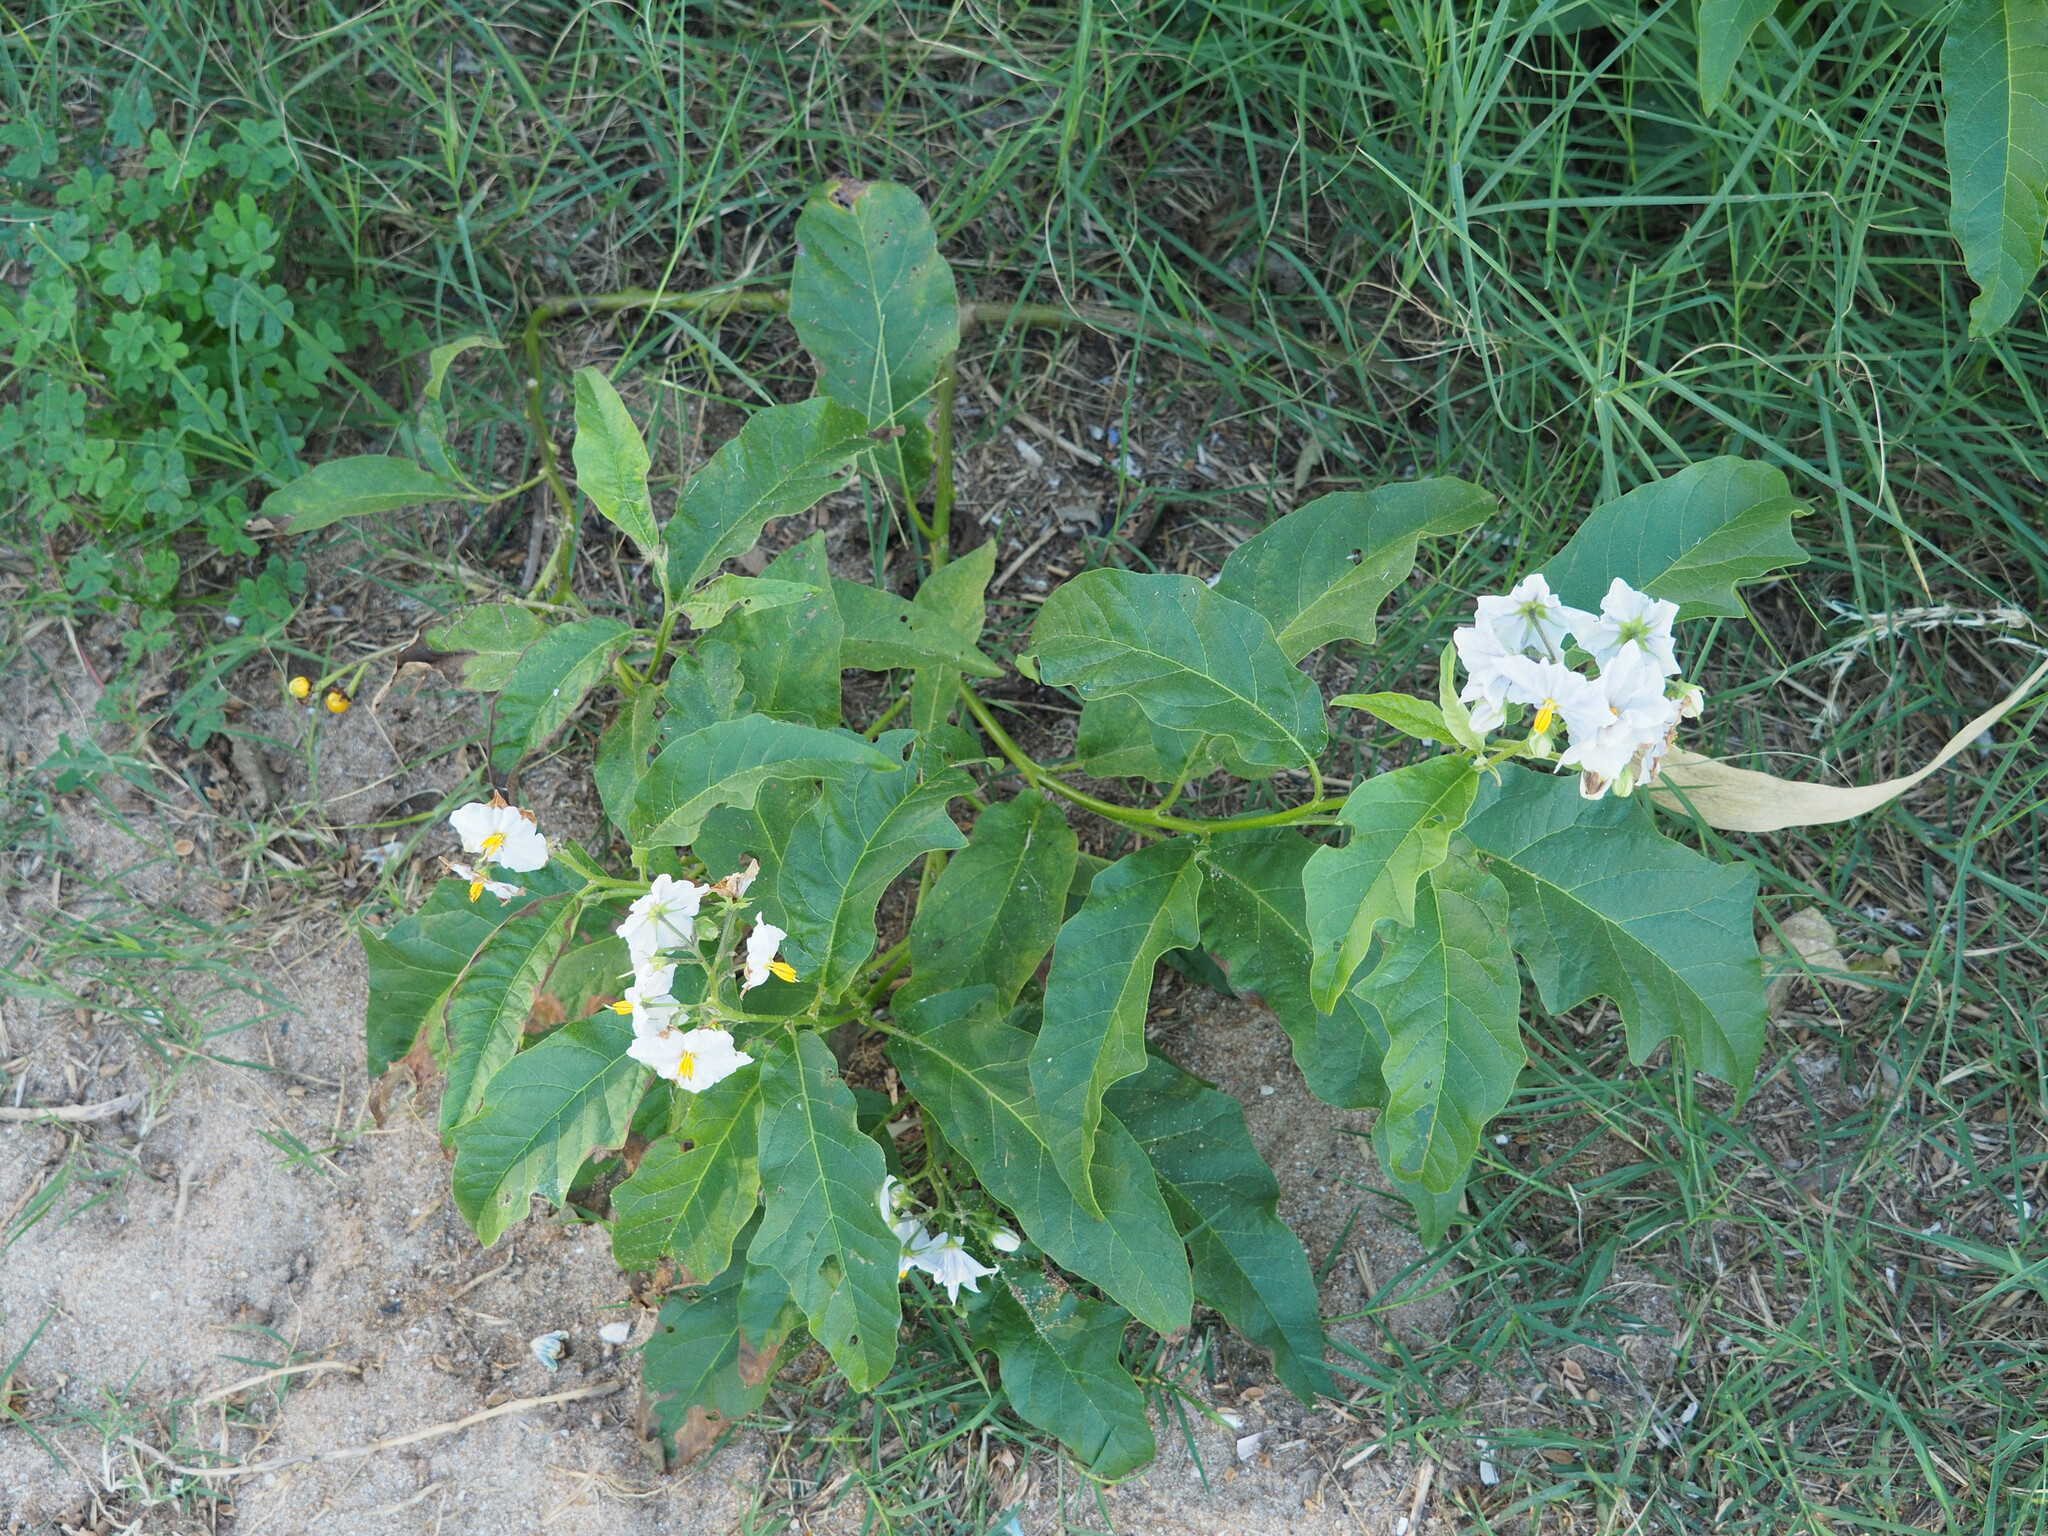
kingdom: Plantae
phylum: Tracheophyta
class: Magnoliopsida
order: Solanales
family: Solanaceae
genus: Solanum
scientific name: Solanum bonariense
